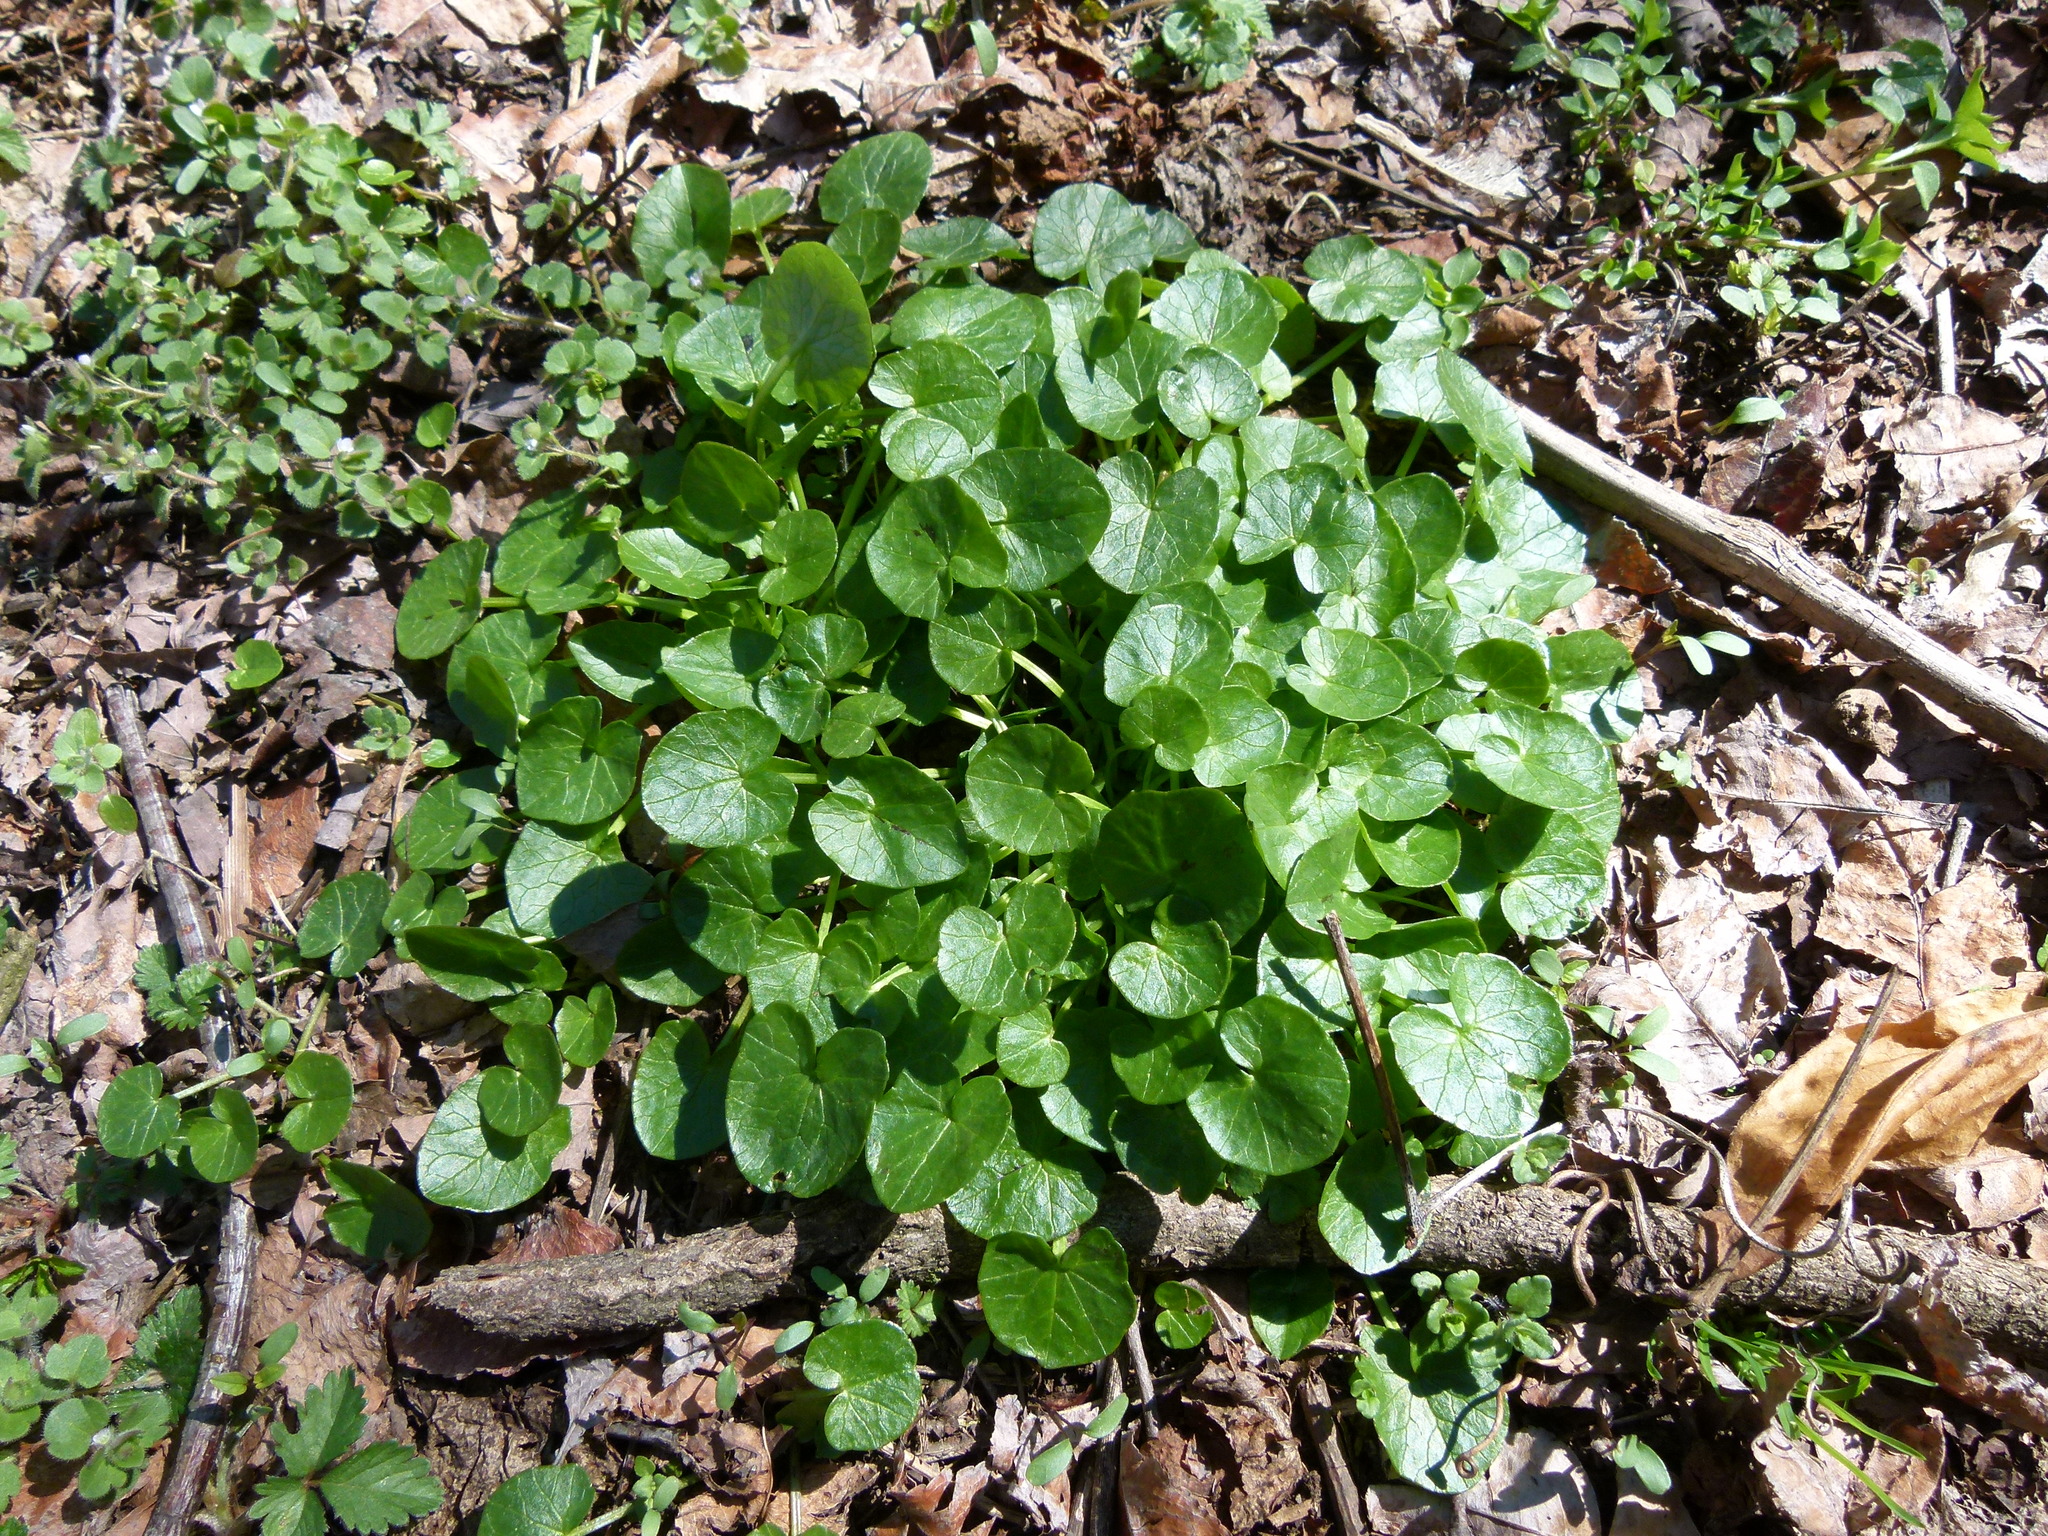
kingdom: Plantae
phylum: Tracheophyta
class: Magnoliopsida
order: Ranunculales
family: Ranunculaceae
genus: Ficaria
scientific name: Ficaria verna
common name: Lesser celandine
